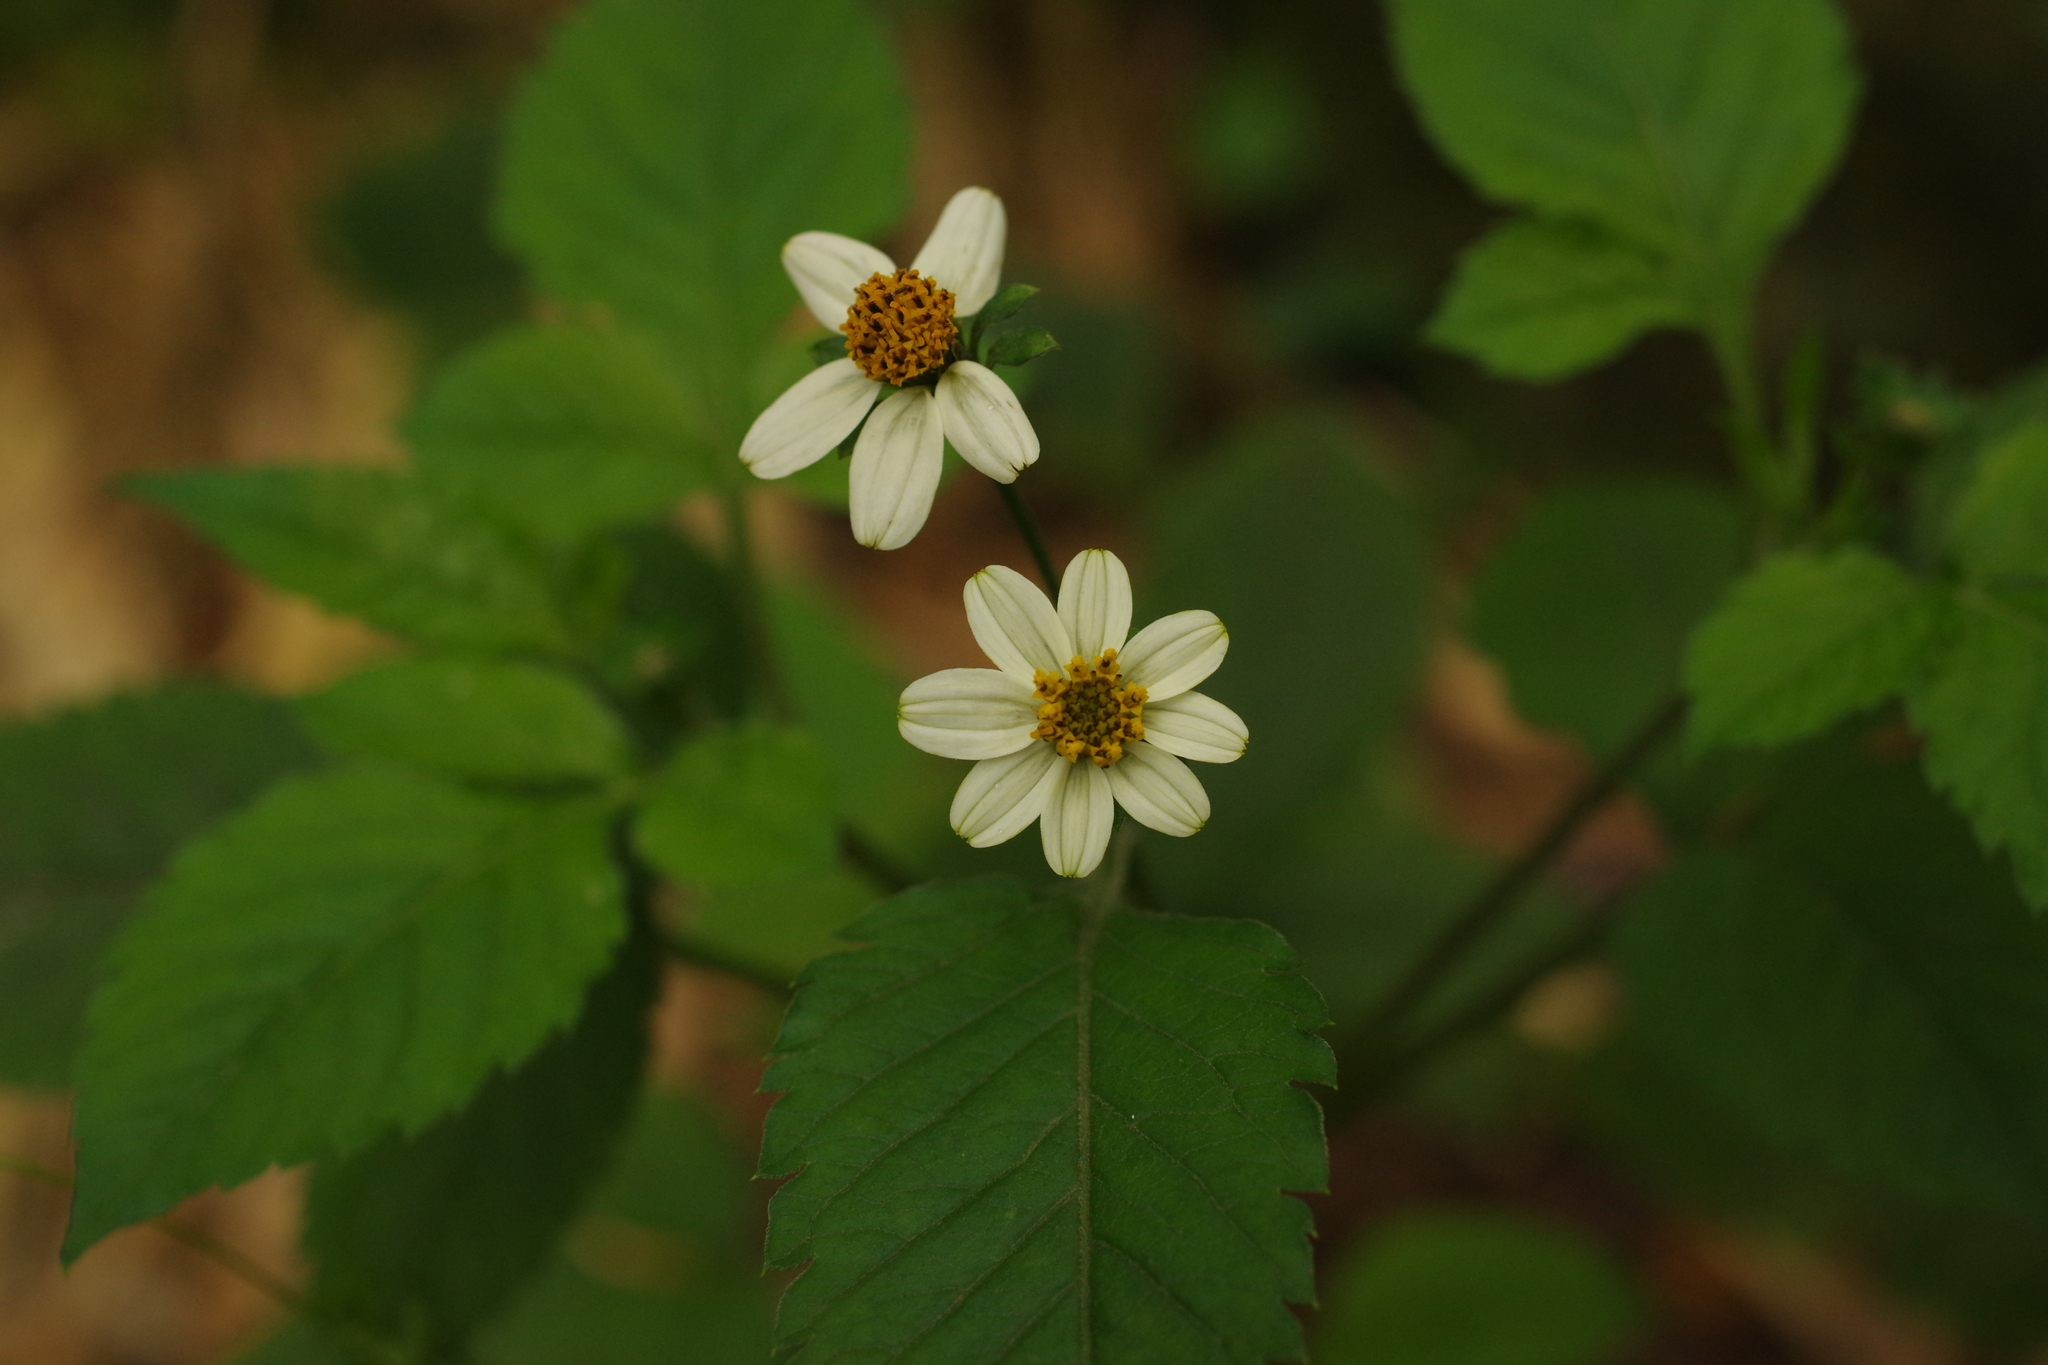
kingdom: Plantae
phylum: Tracheophyta
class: Magnoliopsida
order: Asterales
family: Asteraceae
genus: Bidens
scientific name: Bidens pilosa
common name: Black-jack
